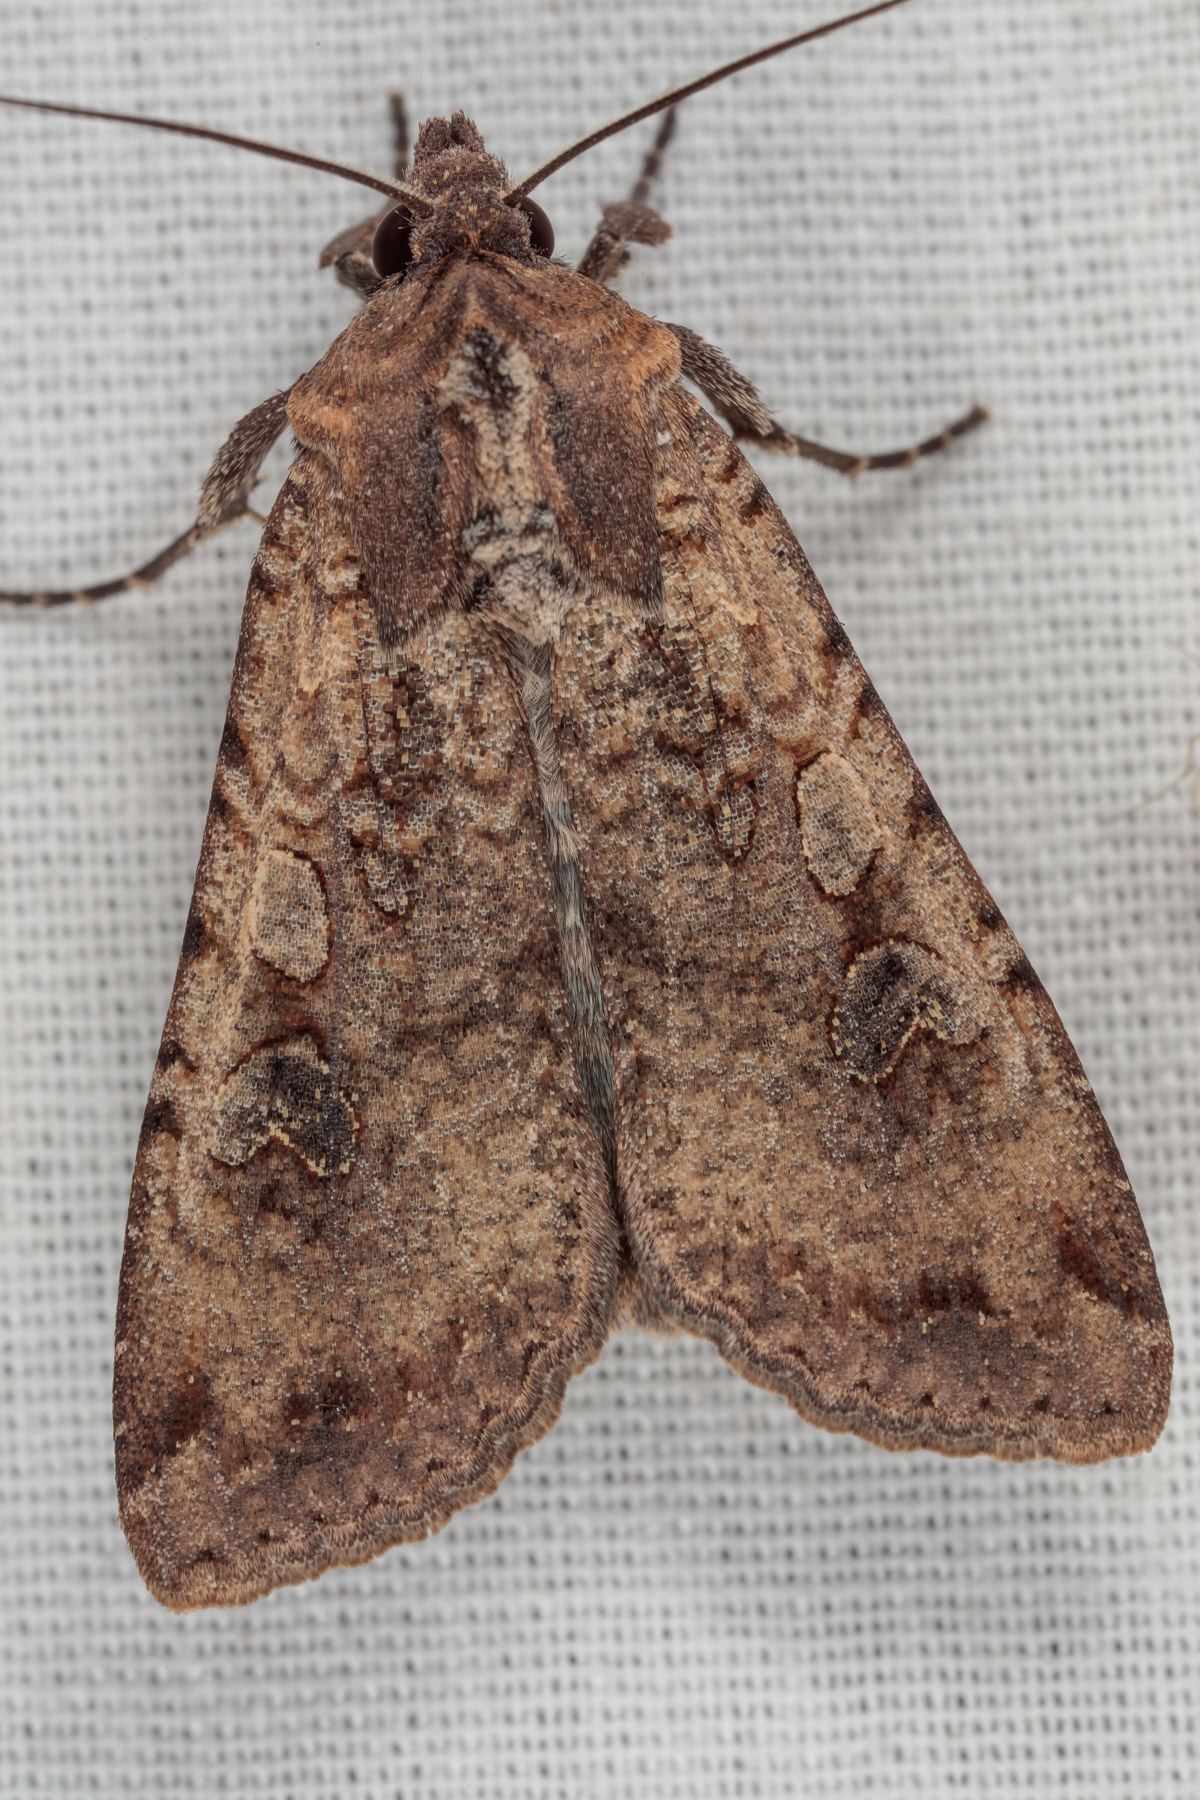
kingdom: Animalia
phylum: Arthropoda
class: Insecta
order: Lepidoptera
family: Noctuidae
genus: Peridroma
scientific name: Peridroma saucia
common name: Pearly underwing
